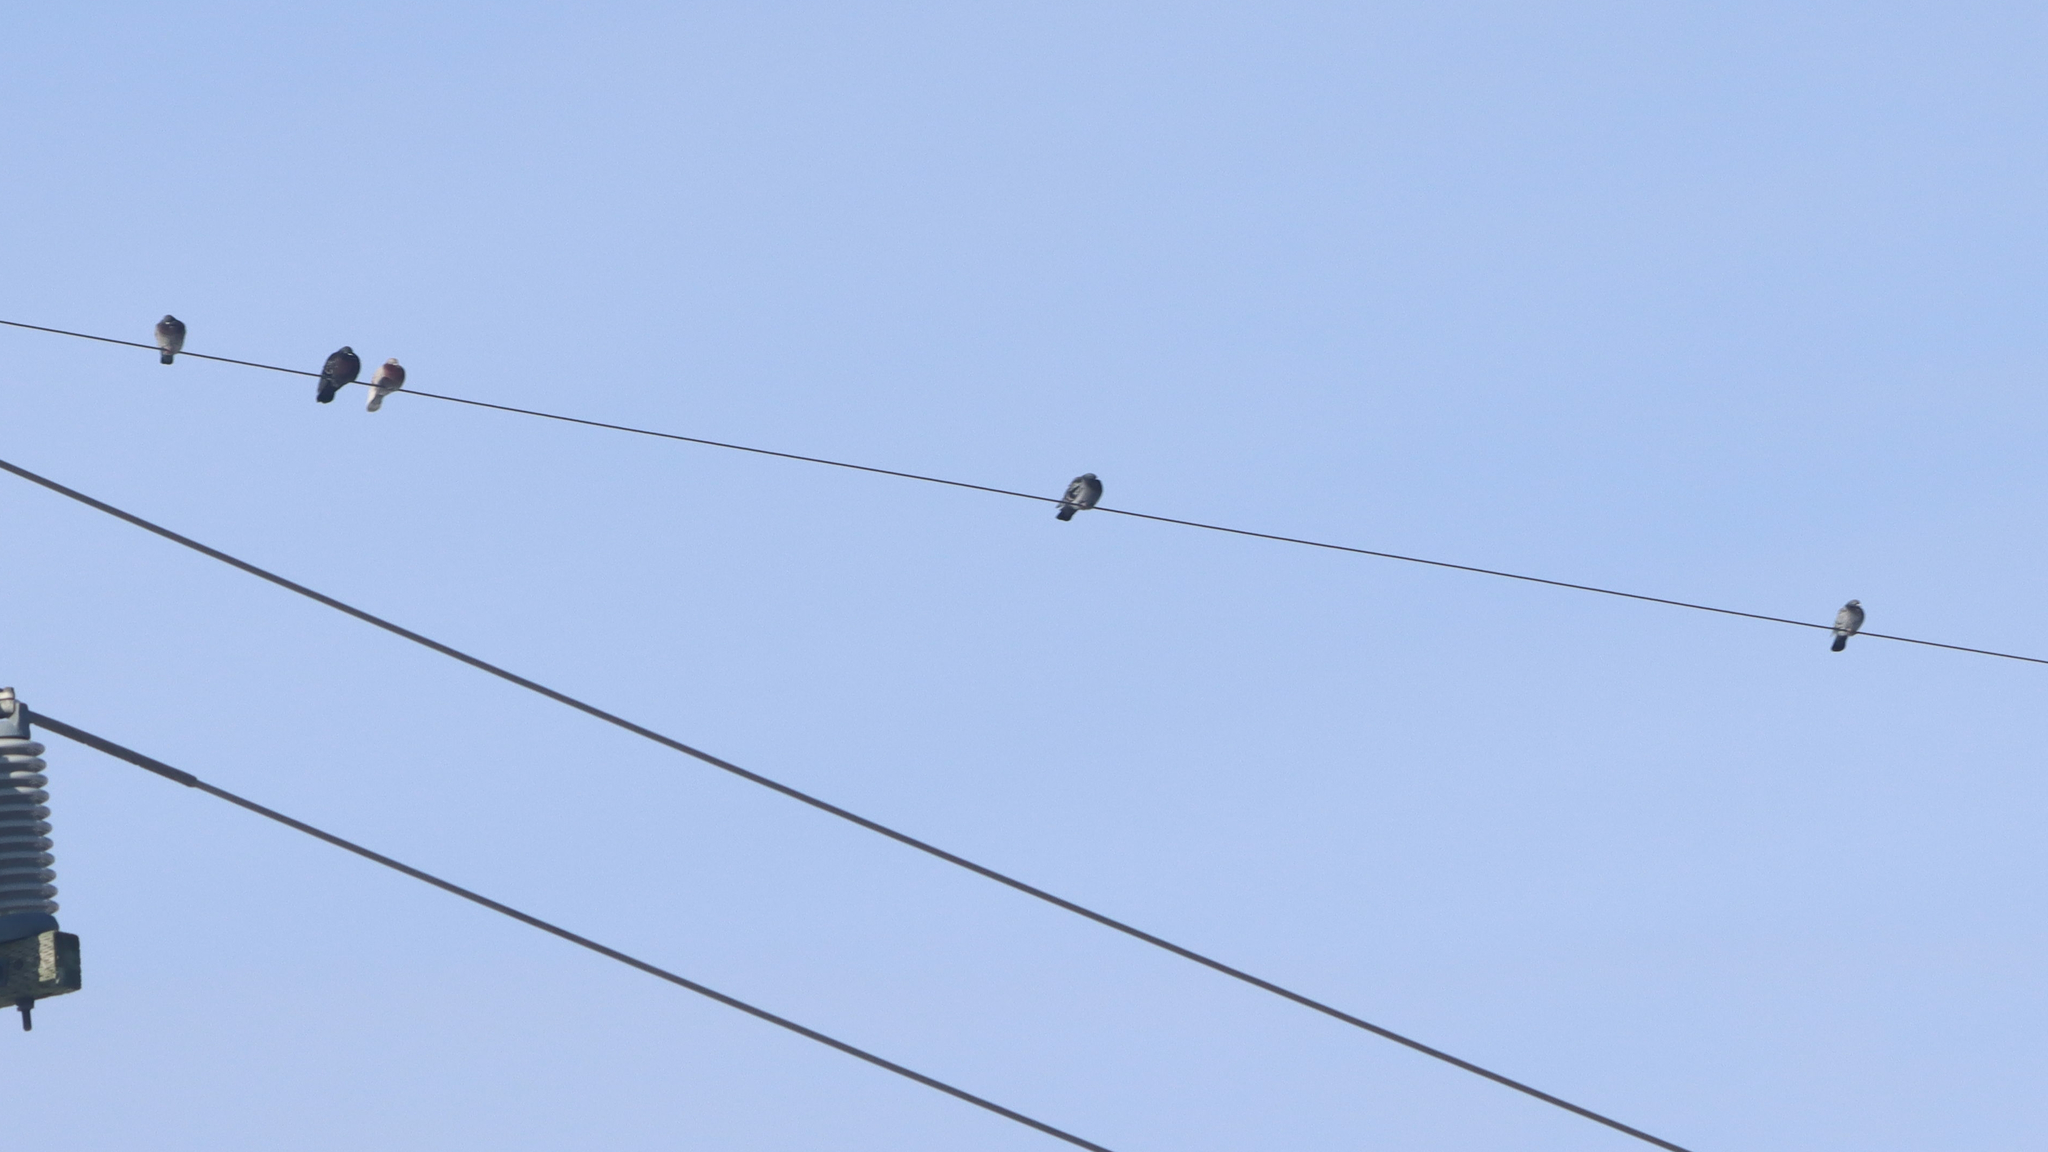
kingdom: Animalia
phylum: Chordata
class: Aves
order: Columbiformes
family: Columbidae
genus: Columba
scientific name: Columba livia
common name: Rock pigeon
